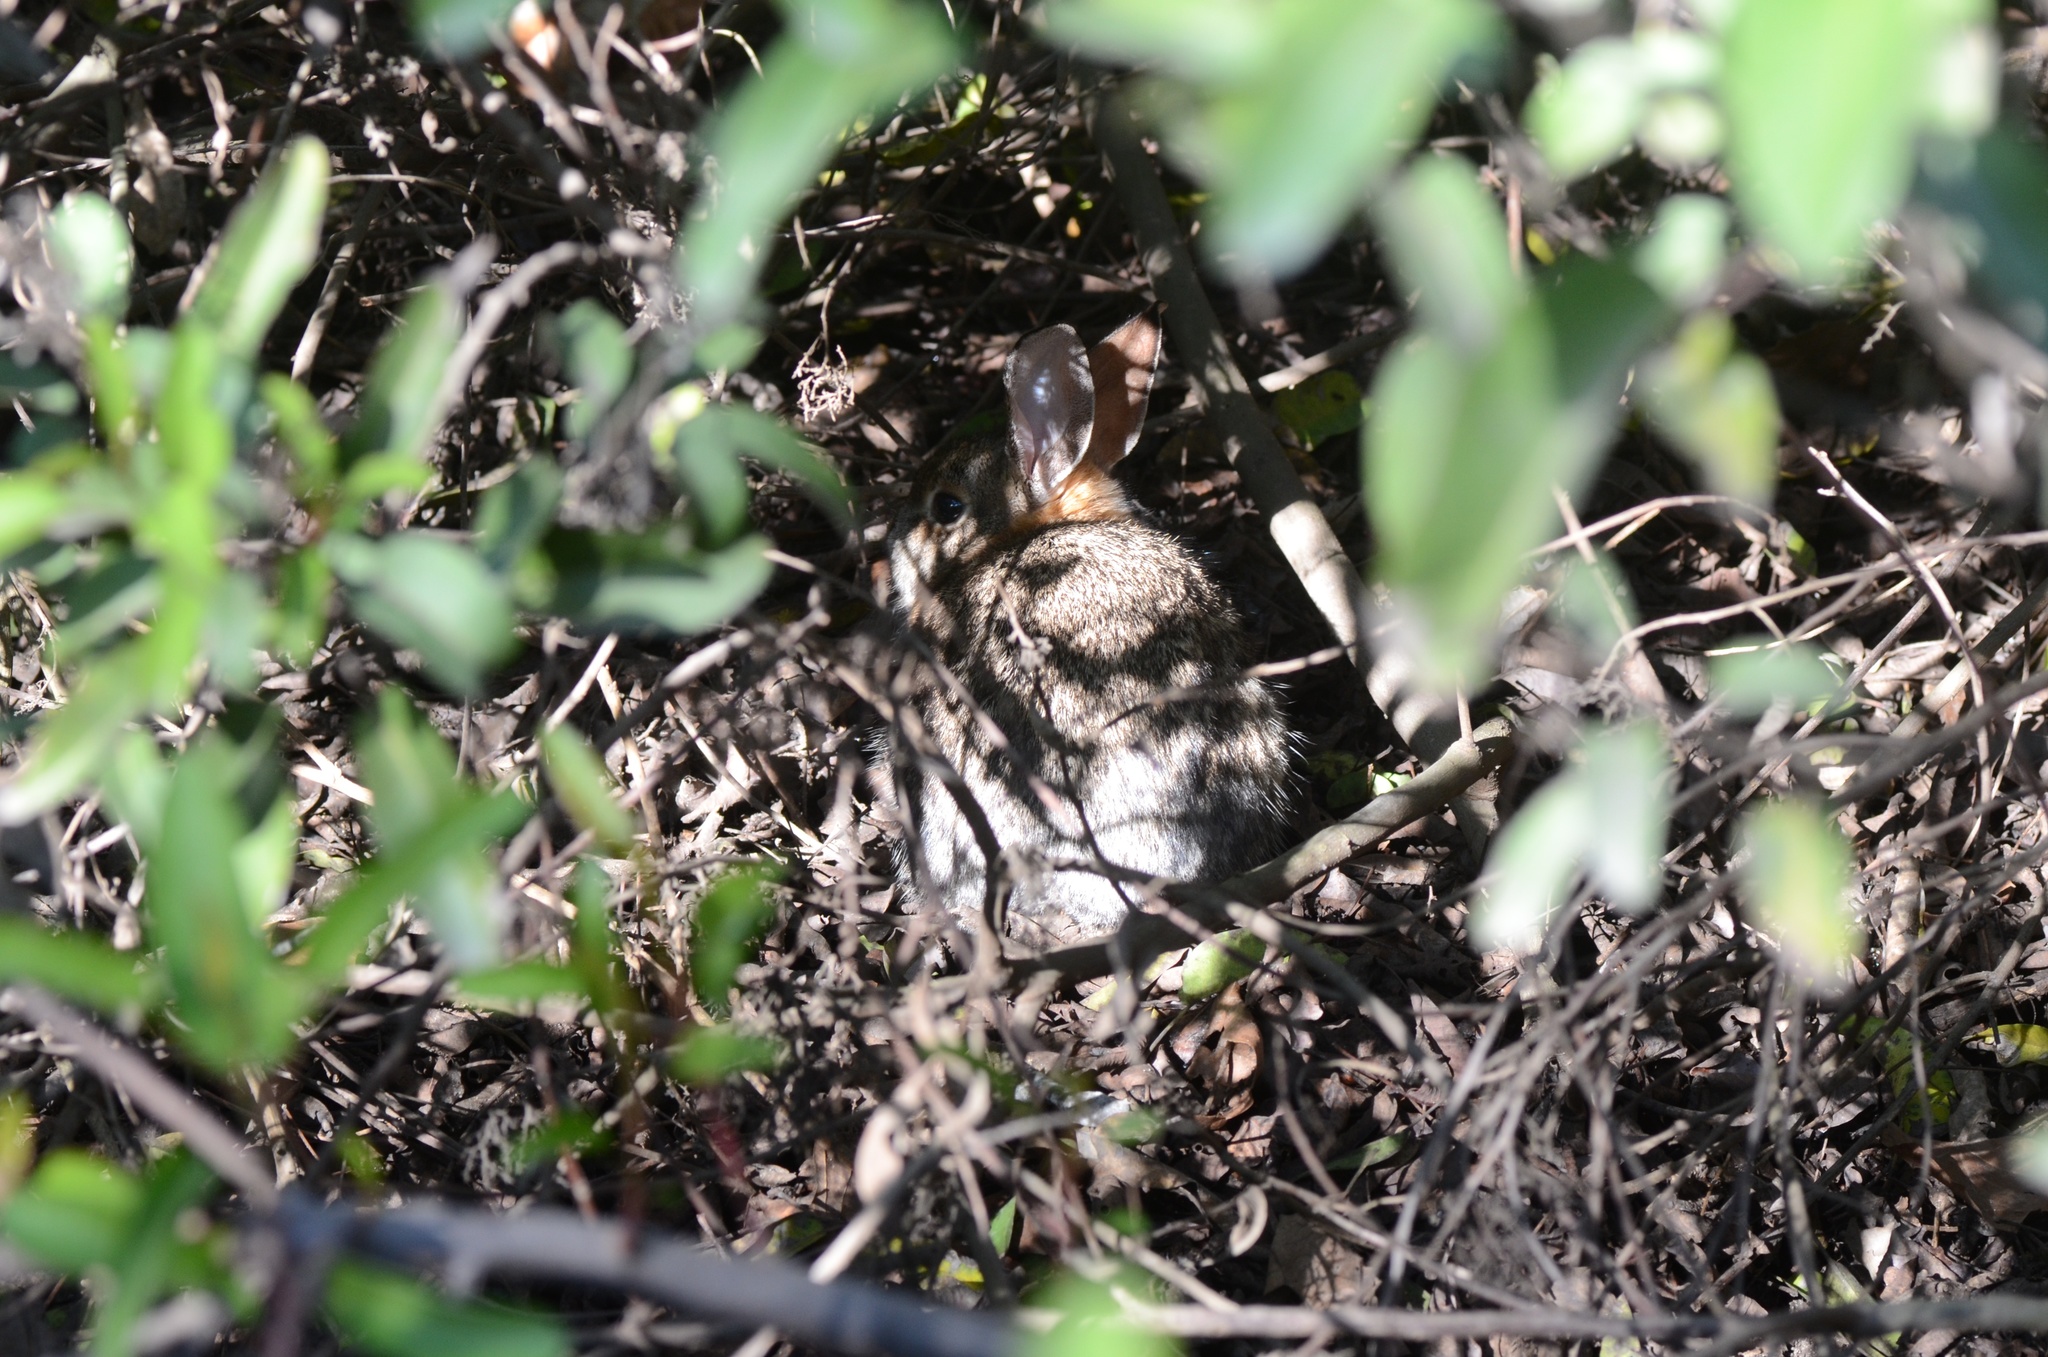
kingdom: Animalia
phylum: Chordata
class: Mammalia
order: Lagomorpha
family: Leporidae
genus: Sylvilagus
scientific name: Sylvilagus audubonii
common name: Desert cottontail
